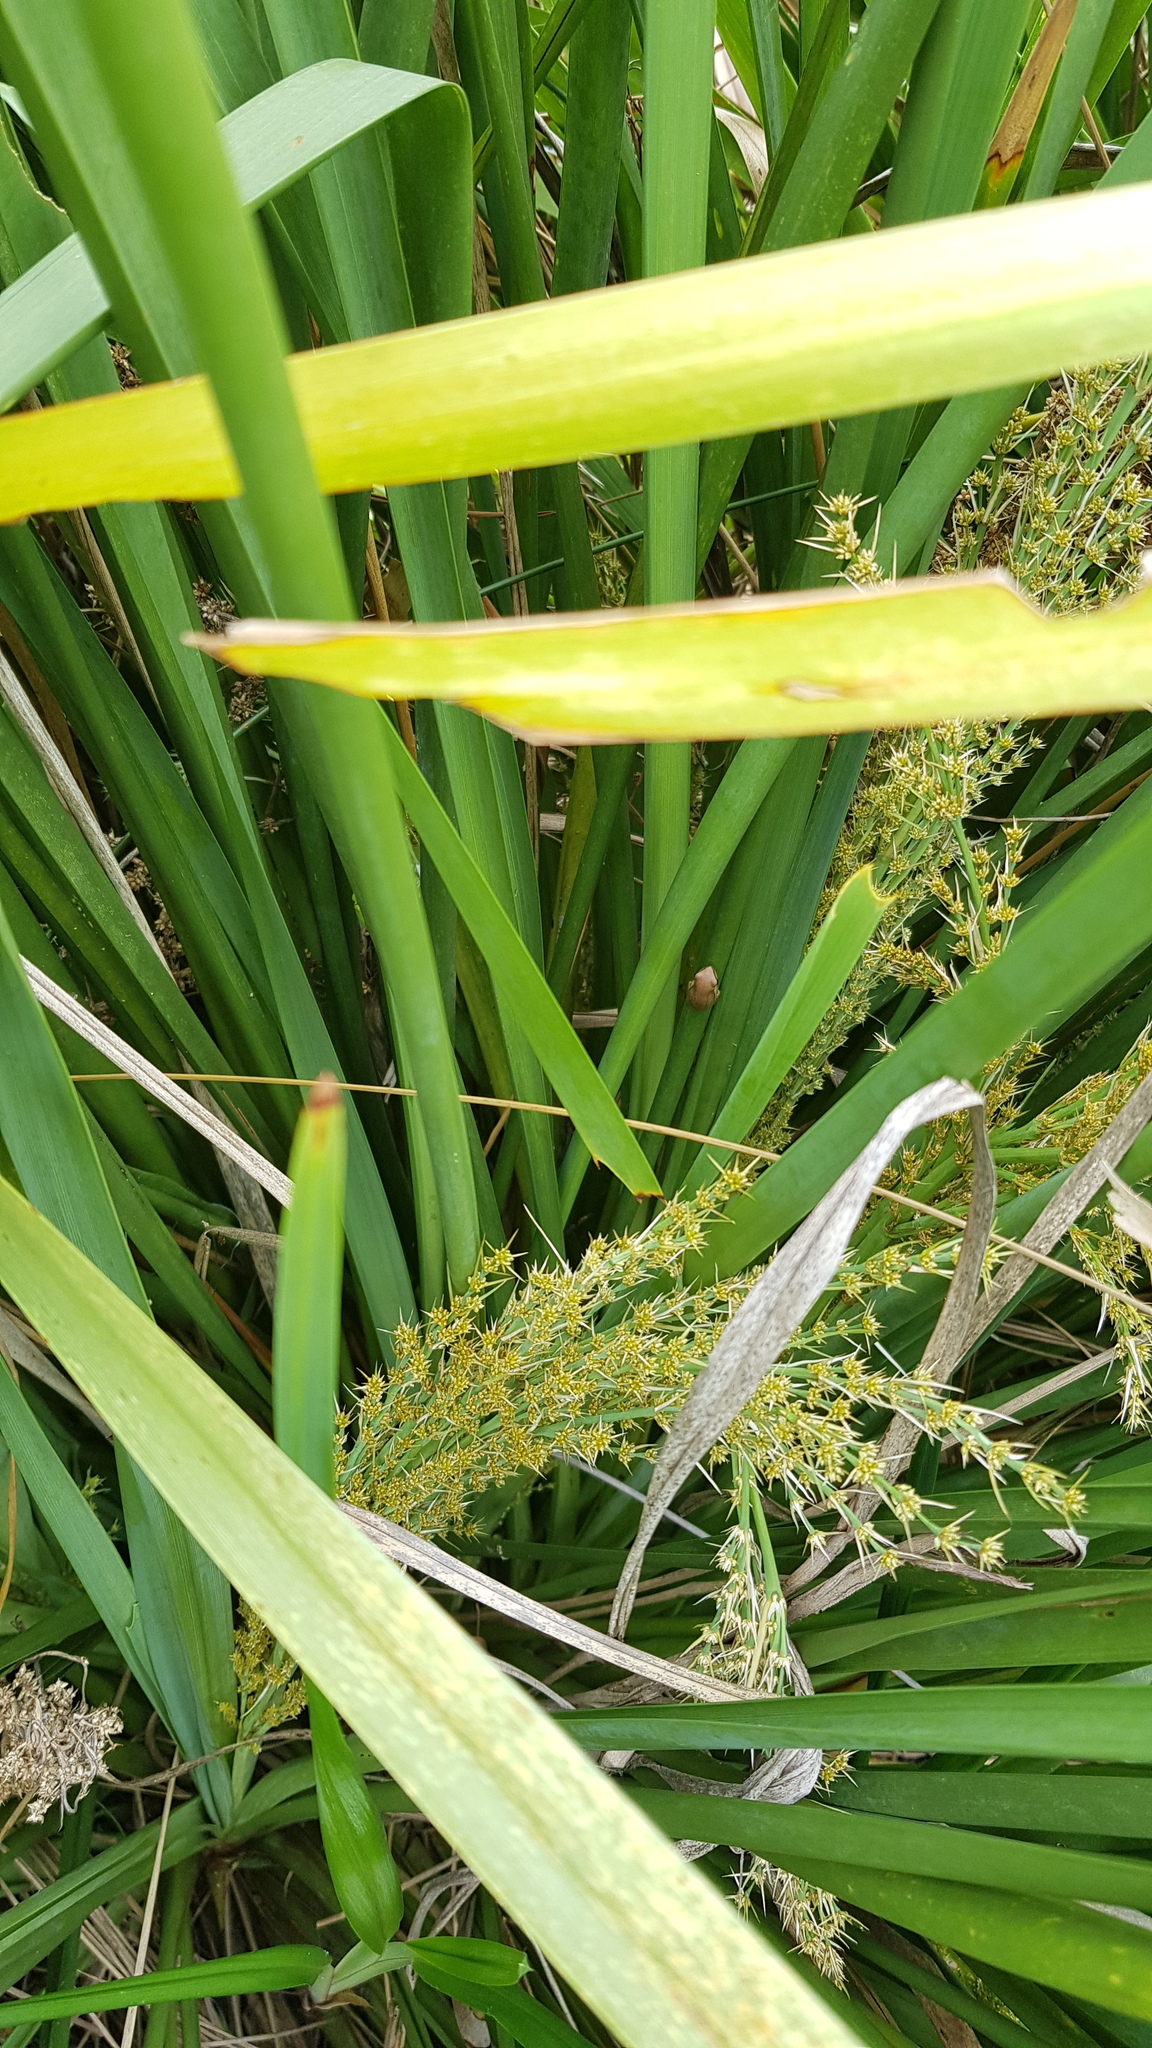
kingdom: Animalia
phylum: Chordata
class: Amphibia
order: Anura
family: Pelodryadidae
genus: Litoria
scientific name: Litoria fallax
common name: Eastern dwarf treefrog
